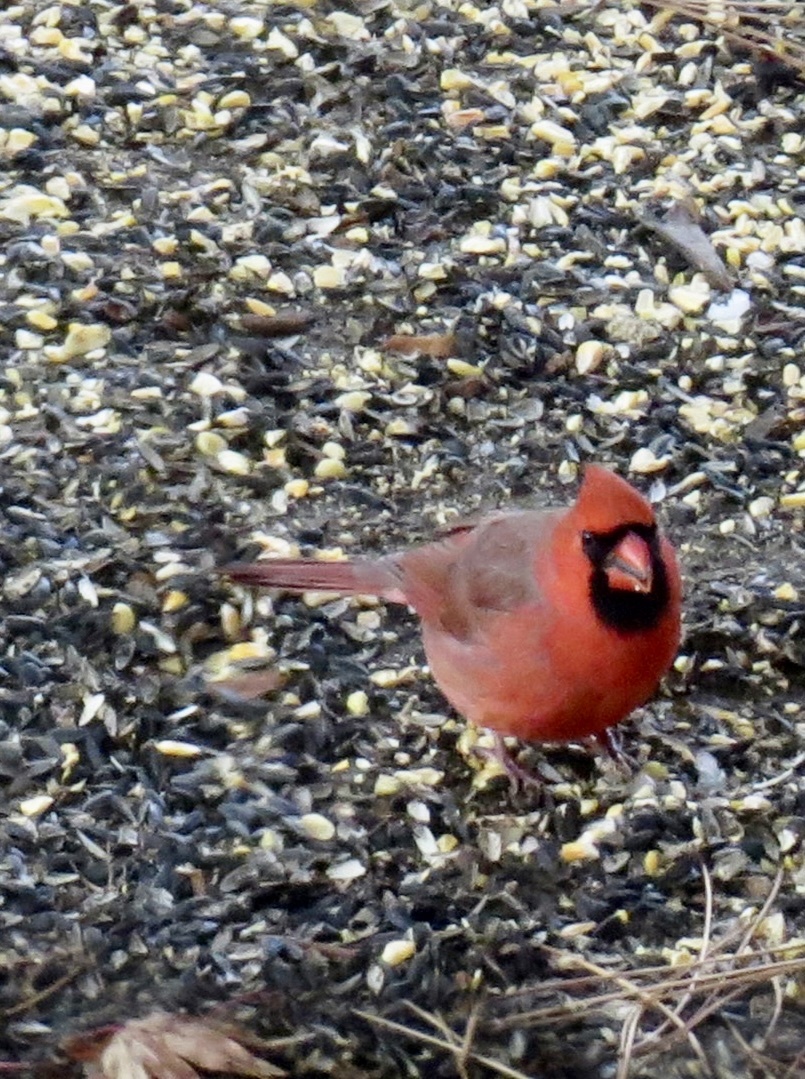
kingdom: Animalia
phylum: Chordata
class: Aves
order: Passeriformes
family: Cardinalidae
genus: Cardinalis
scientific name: Cardinalis cardinalis
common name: Northern cardinal
